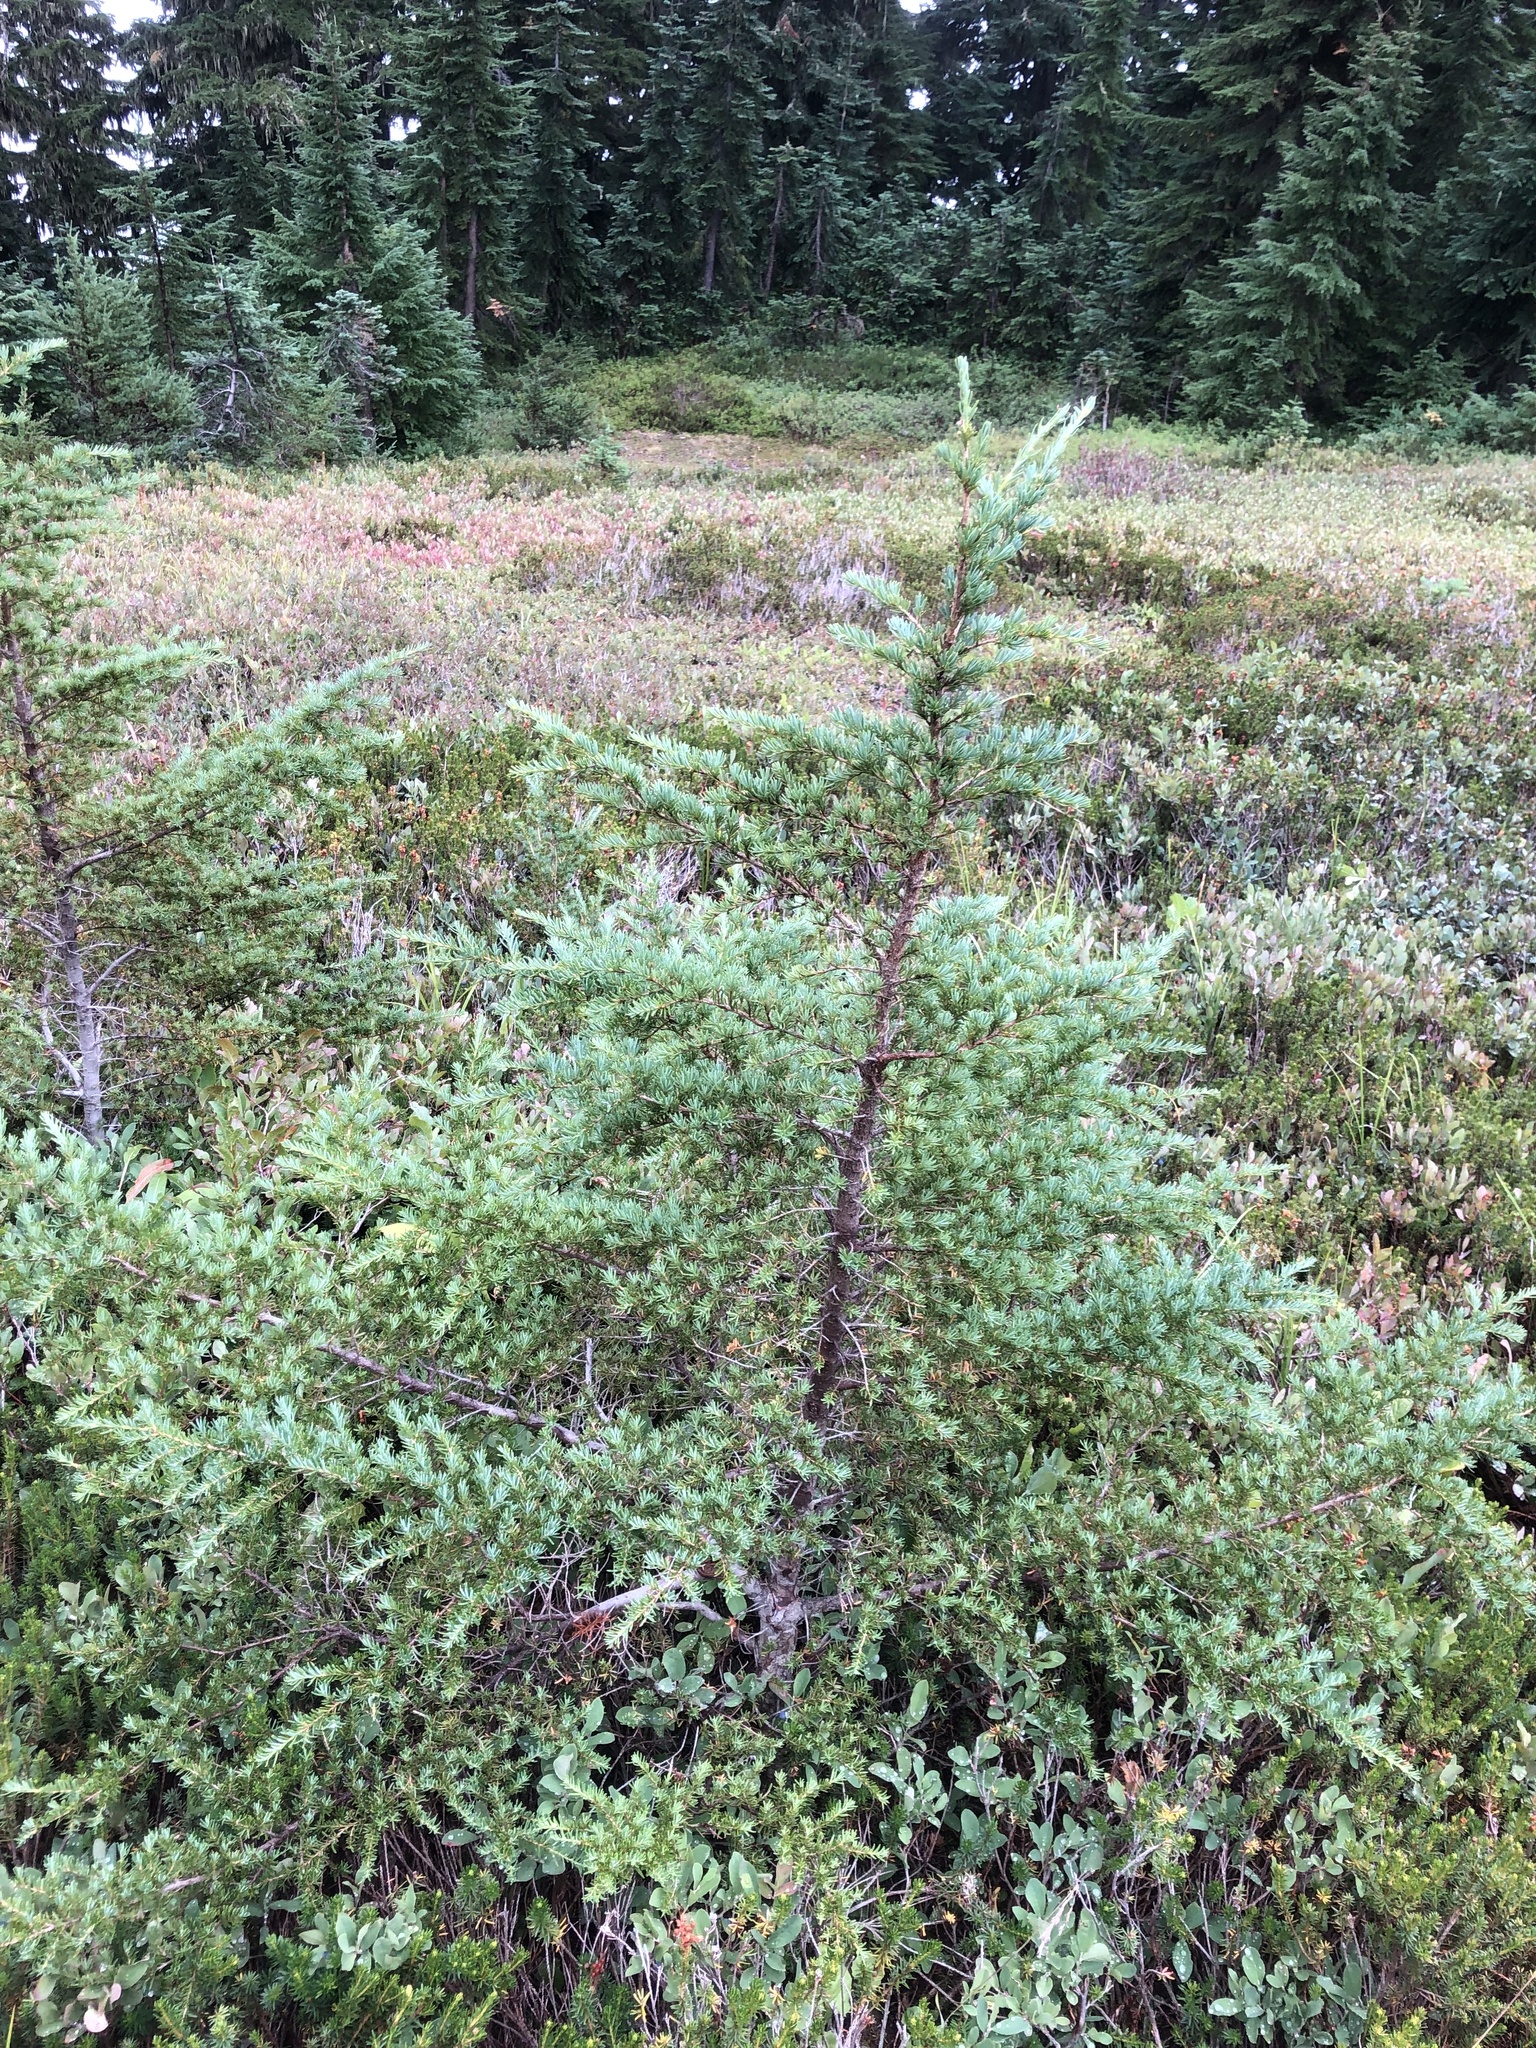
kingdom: Plantae
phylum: Tracheophyta
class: Pinopsida
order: Pinales
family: Pinaceae
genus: Tsuga
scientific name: Tsuga mertensiana
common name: Mountain hemlock
